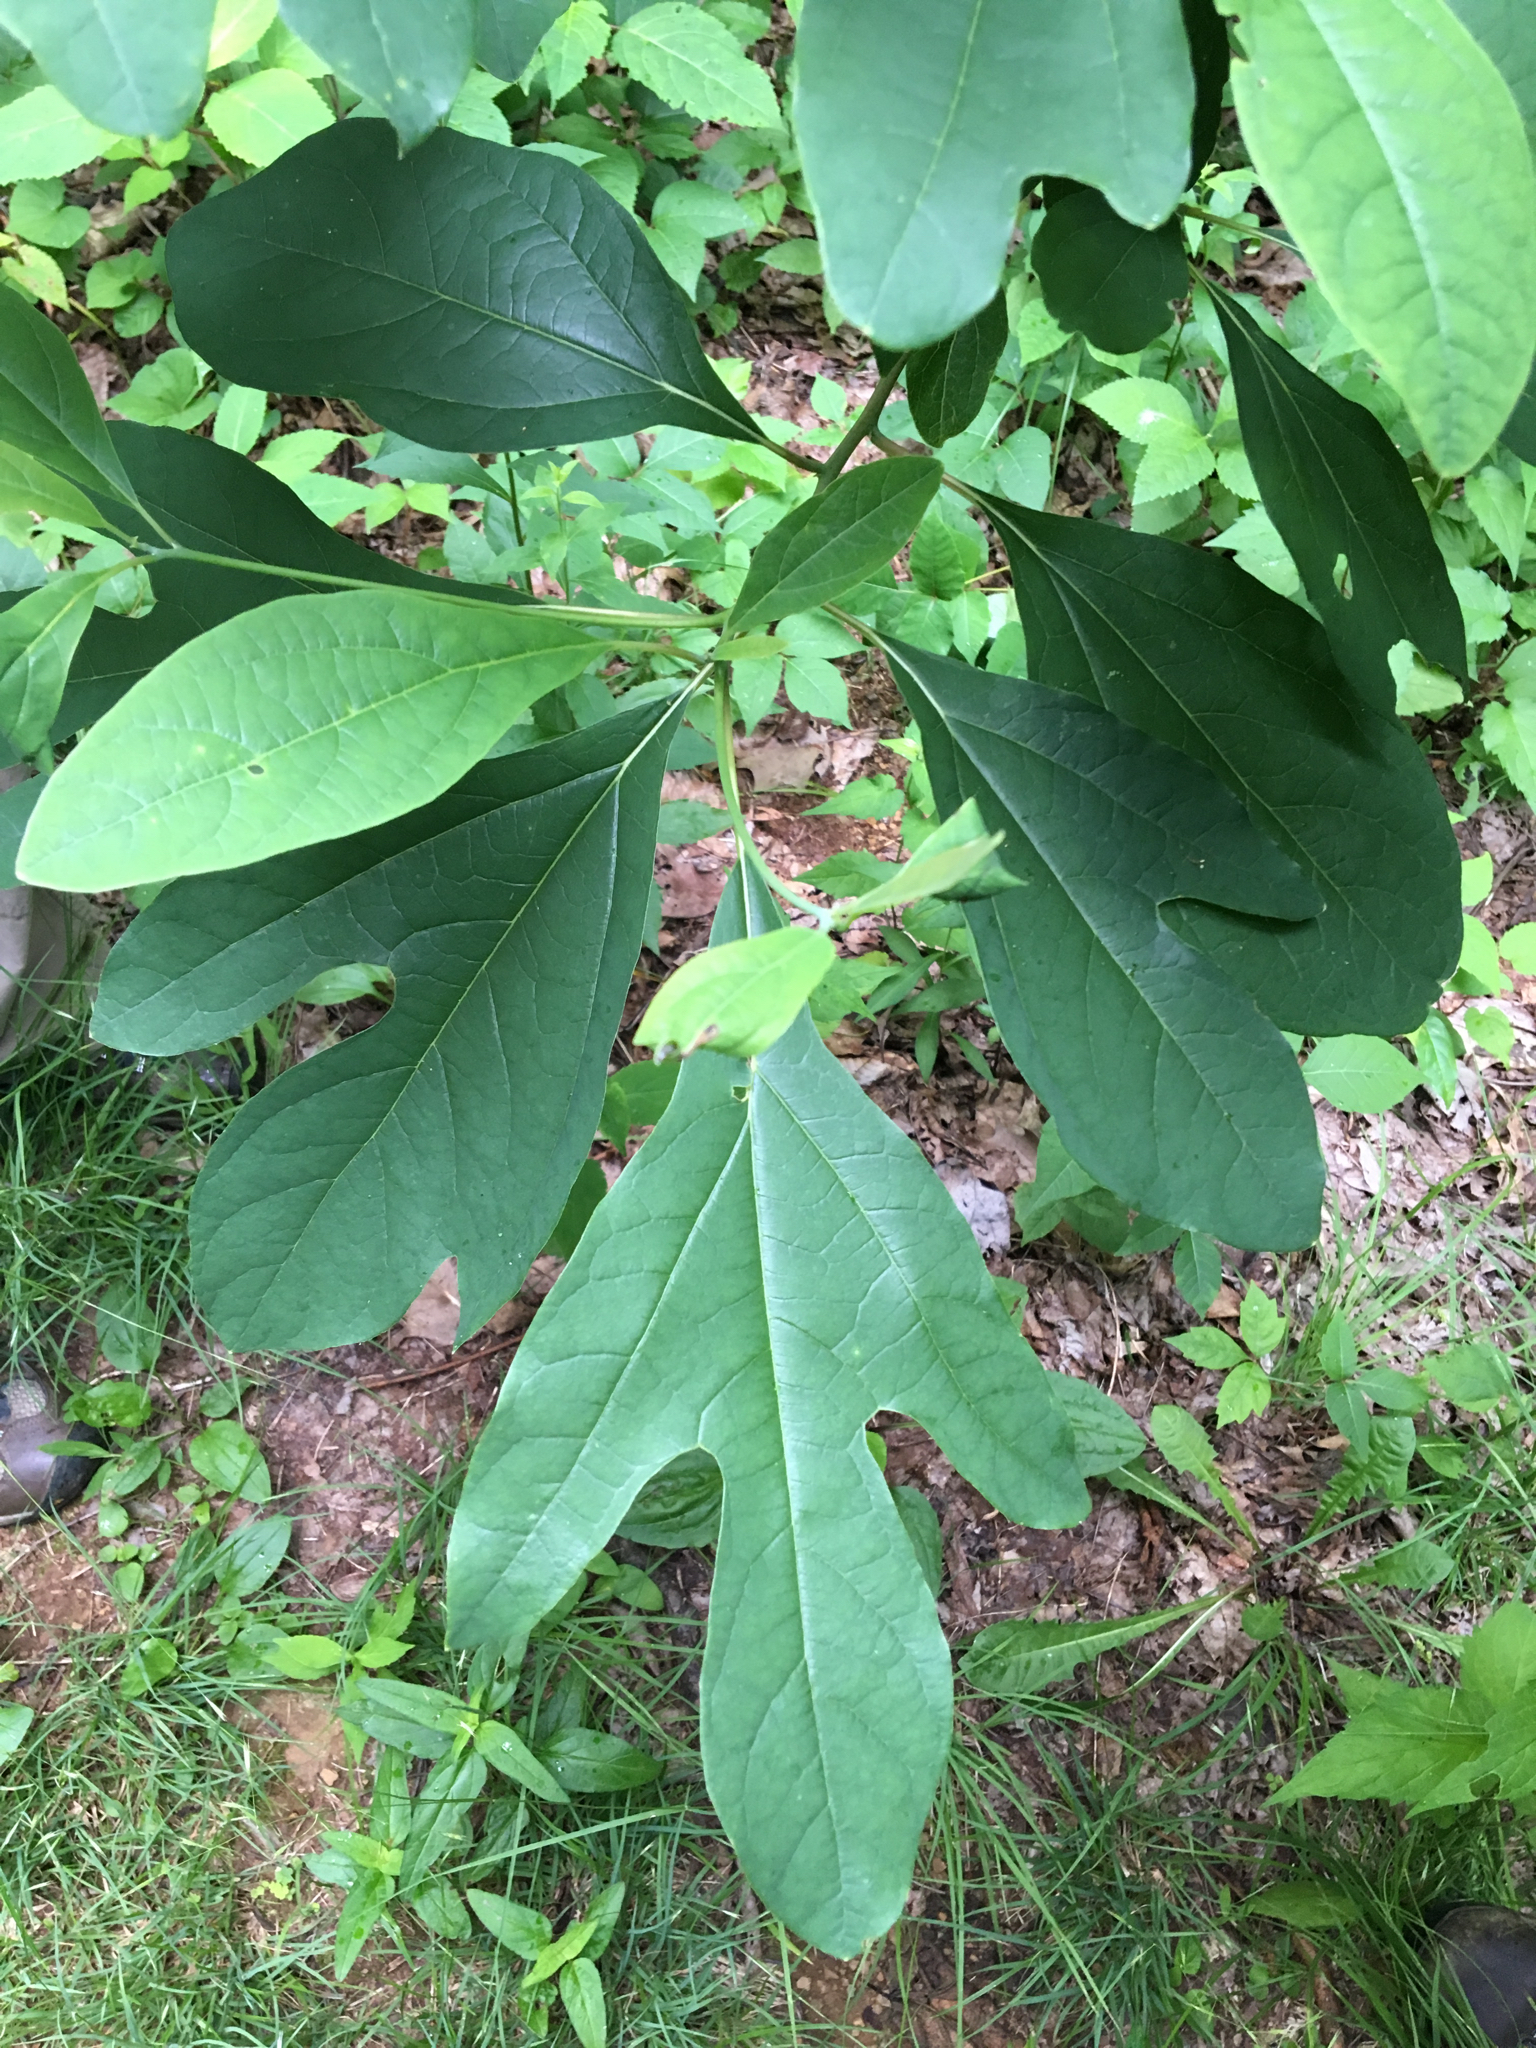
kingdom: Plantae
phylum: Tracheophyta
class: Magnoliopsida
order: Laurales
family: Lauraceae
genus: Sassafras
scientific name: Sassafras albidum
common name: Sassafras
